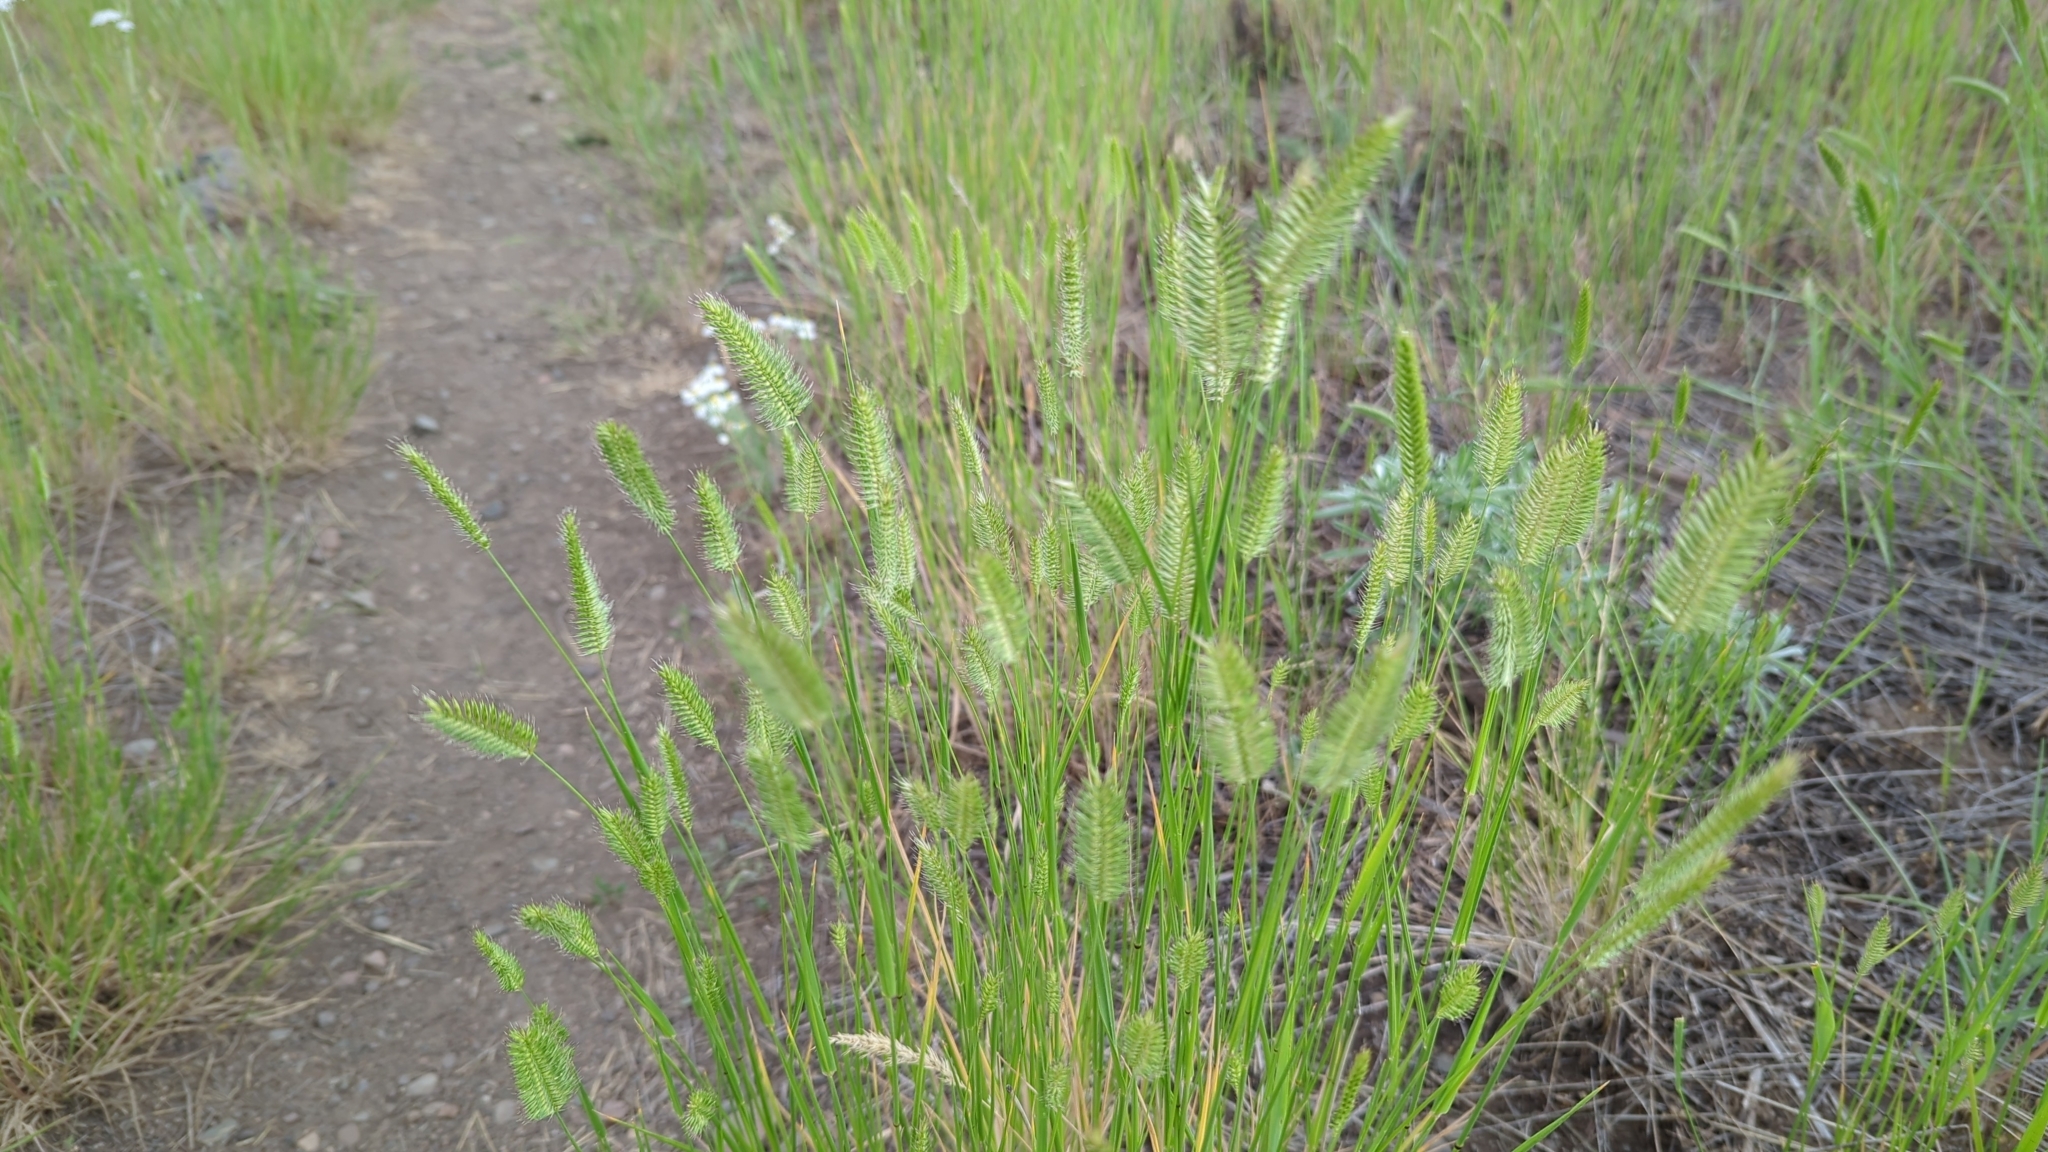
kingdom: Plantae
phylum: Tracheophyta
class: Liliopsida
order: Poales
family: Poaceae
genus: Agropyron
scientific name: Agropyron cristatum
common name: Crested wheatgrass
